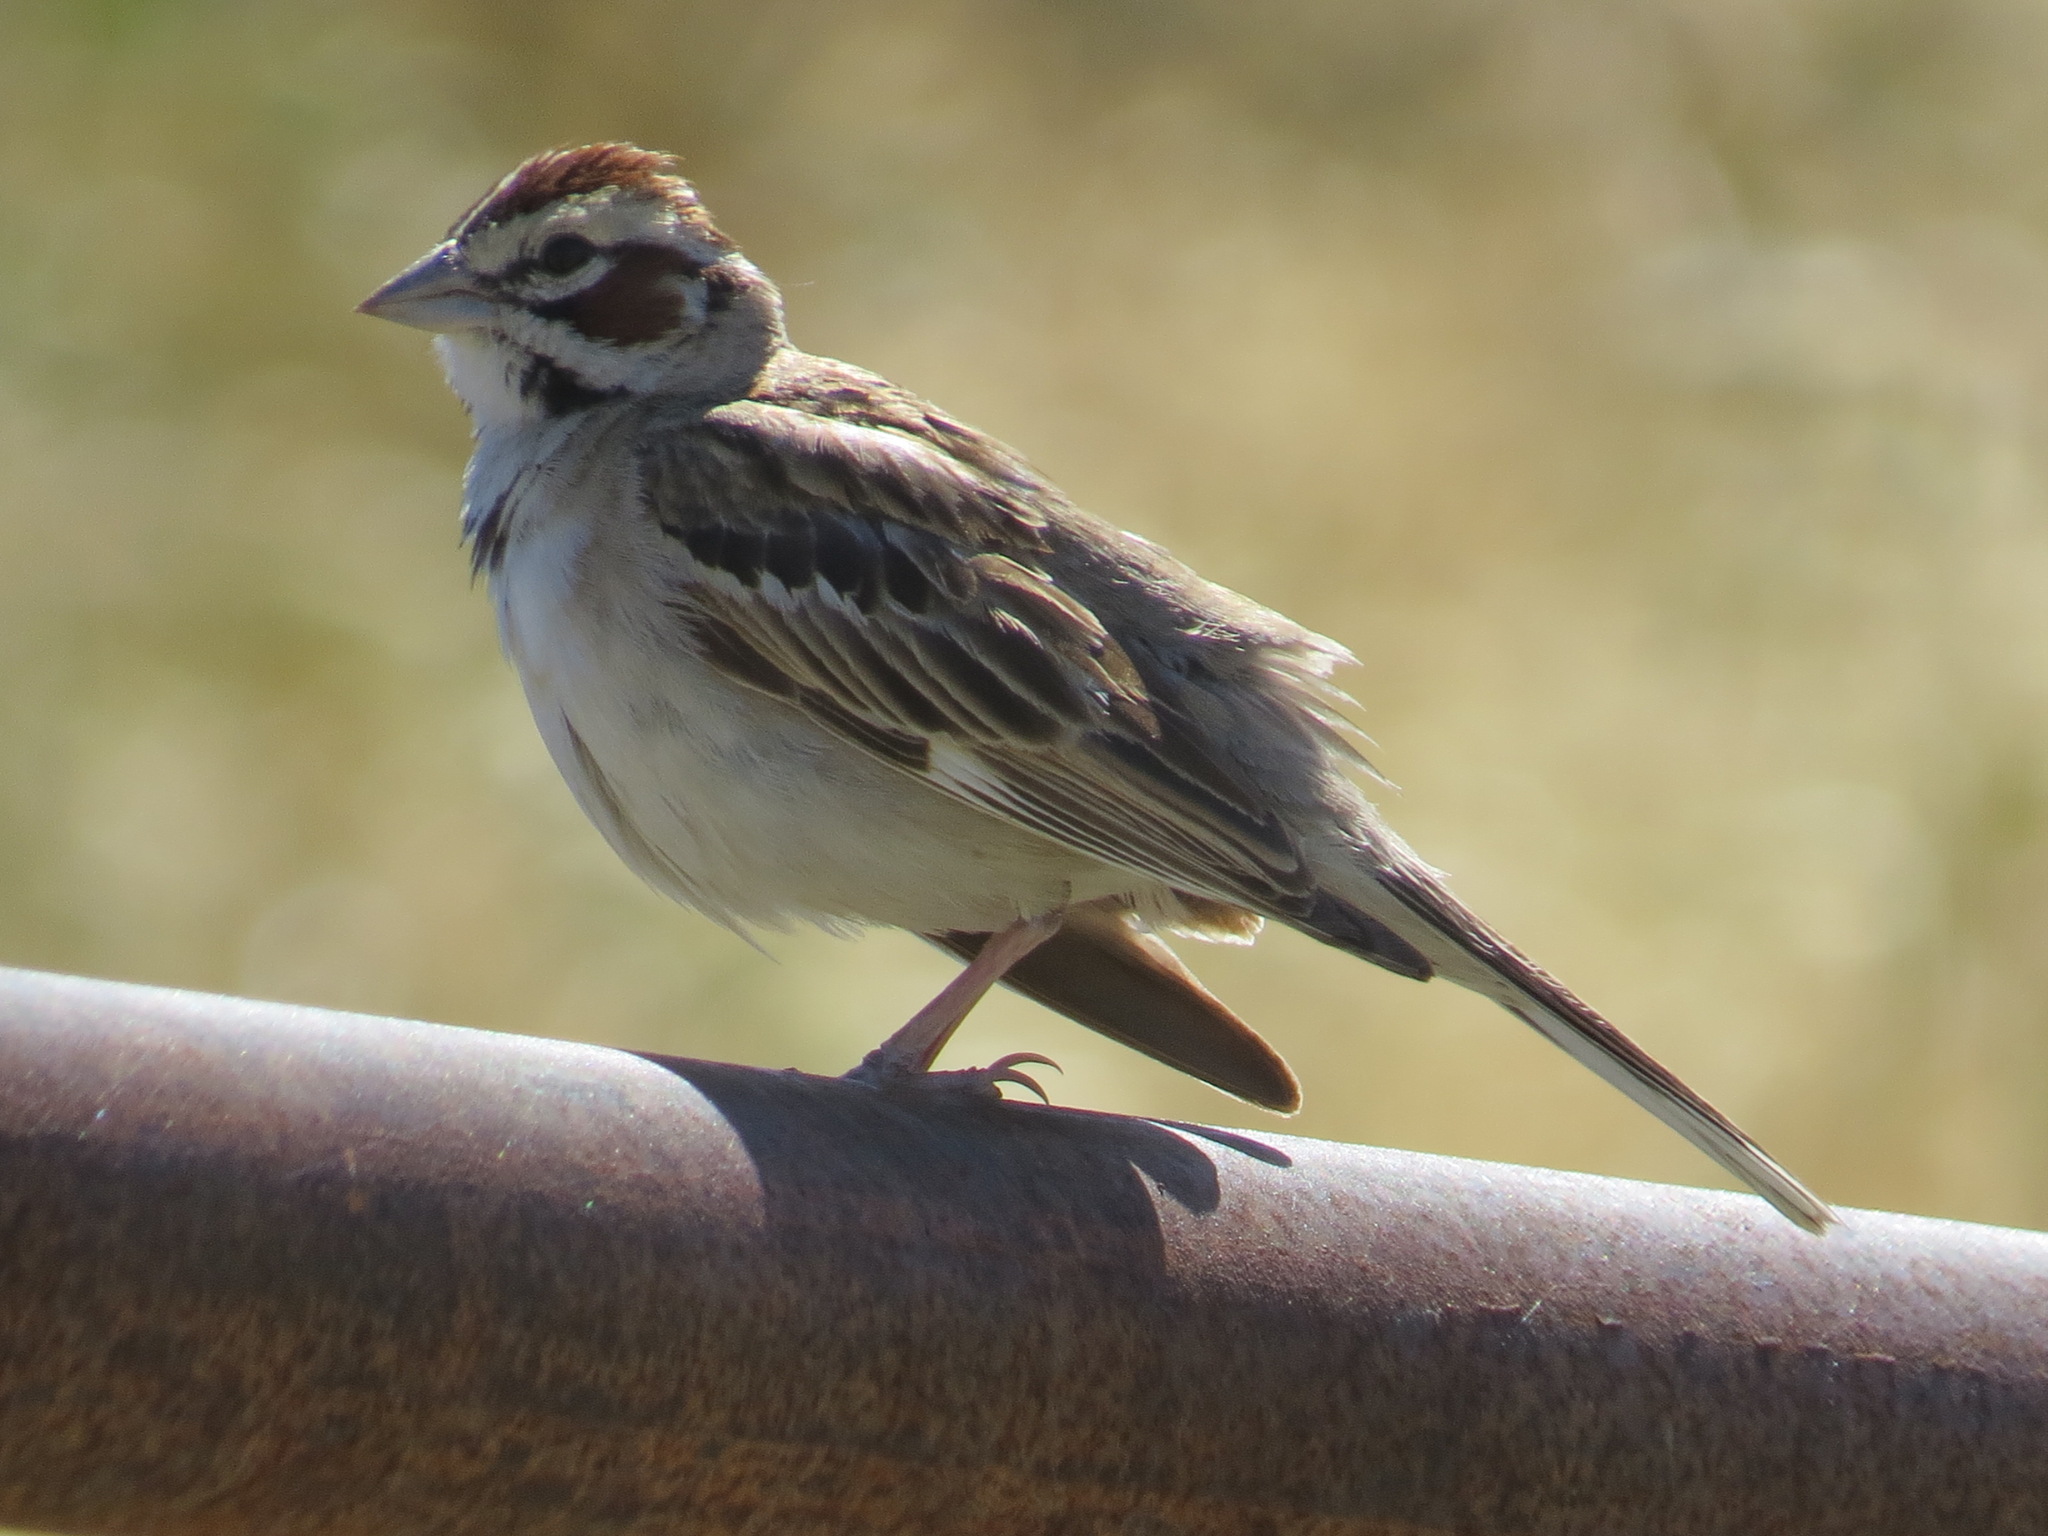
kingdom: Animalia
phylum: Chordata
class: Aves
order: Passeriformes
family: Passerellidae
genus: Chondestes
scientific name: Chondestes grammacus
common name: Lark sparrow
